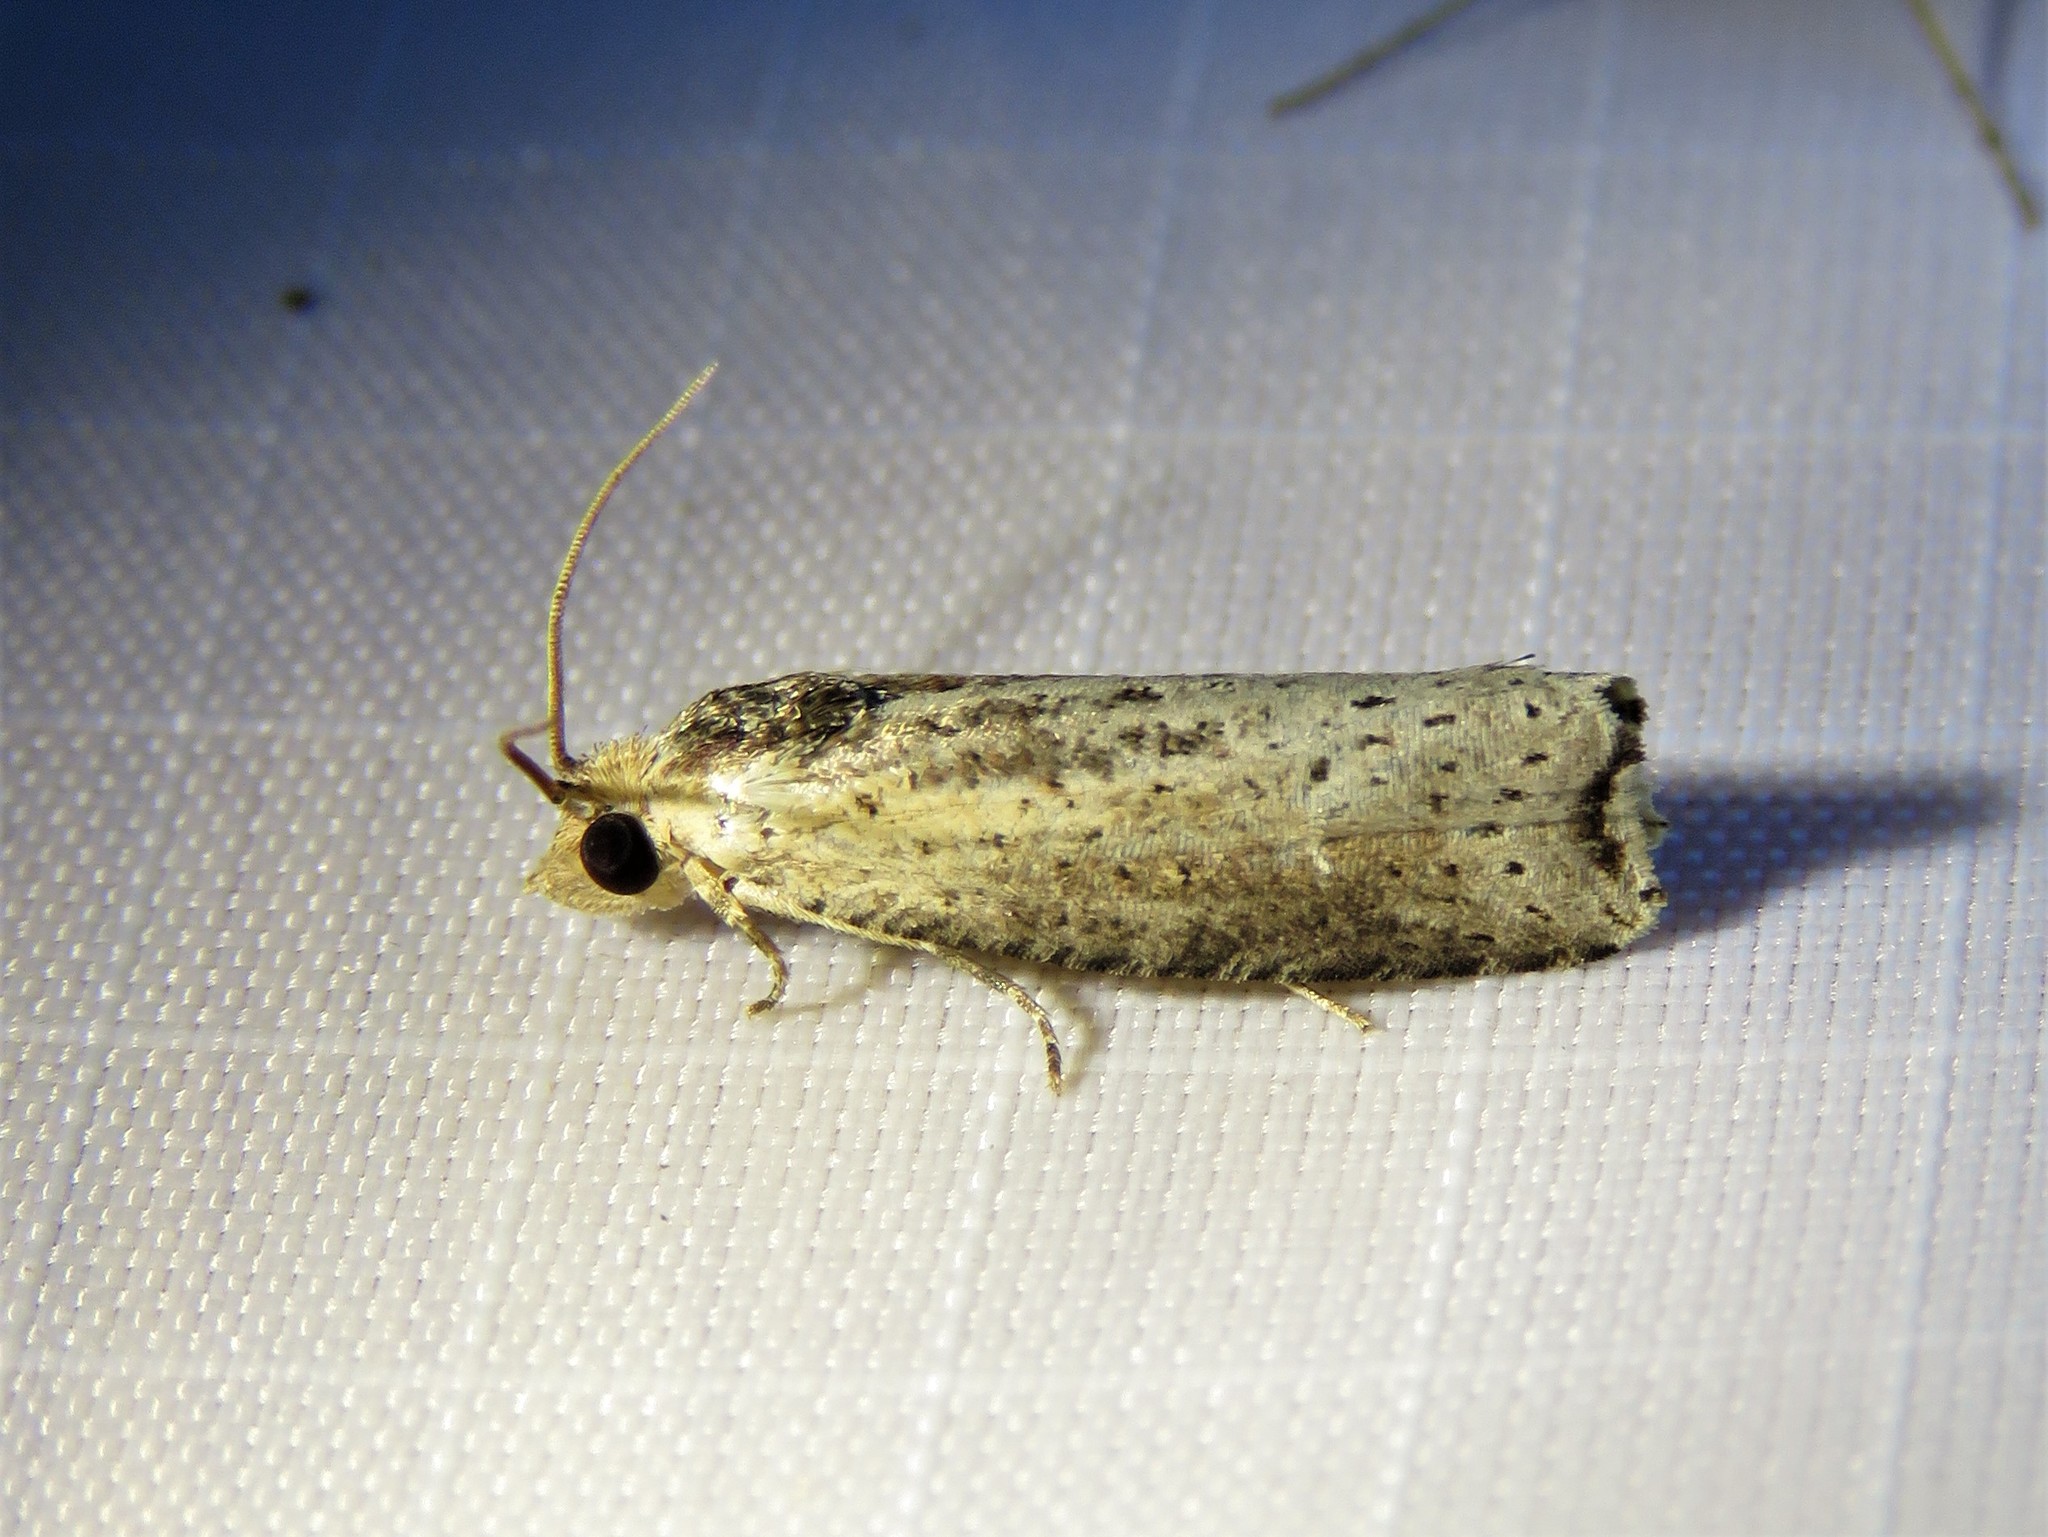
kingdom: Animalia
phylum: Arthropoda
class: Insecta
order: Lepidoptera
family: Tortricidae
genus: Pseudogalleria
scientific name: Pseudogalleria inimicella
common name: Inimical borer moth
